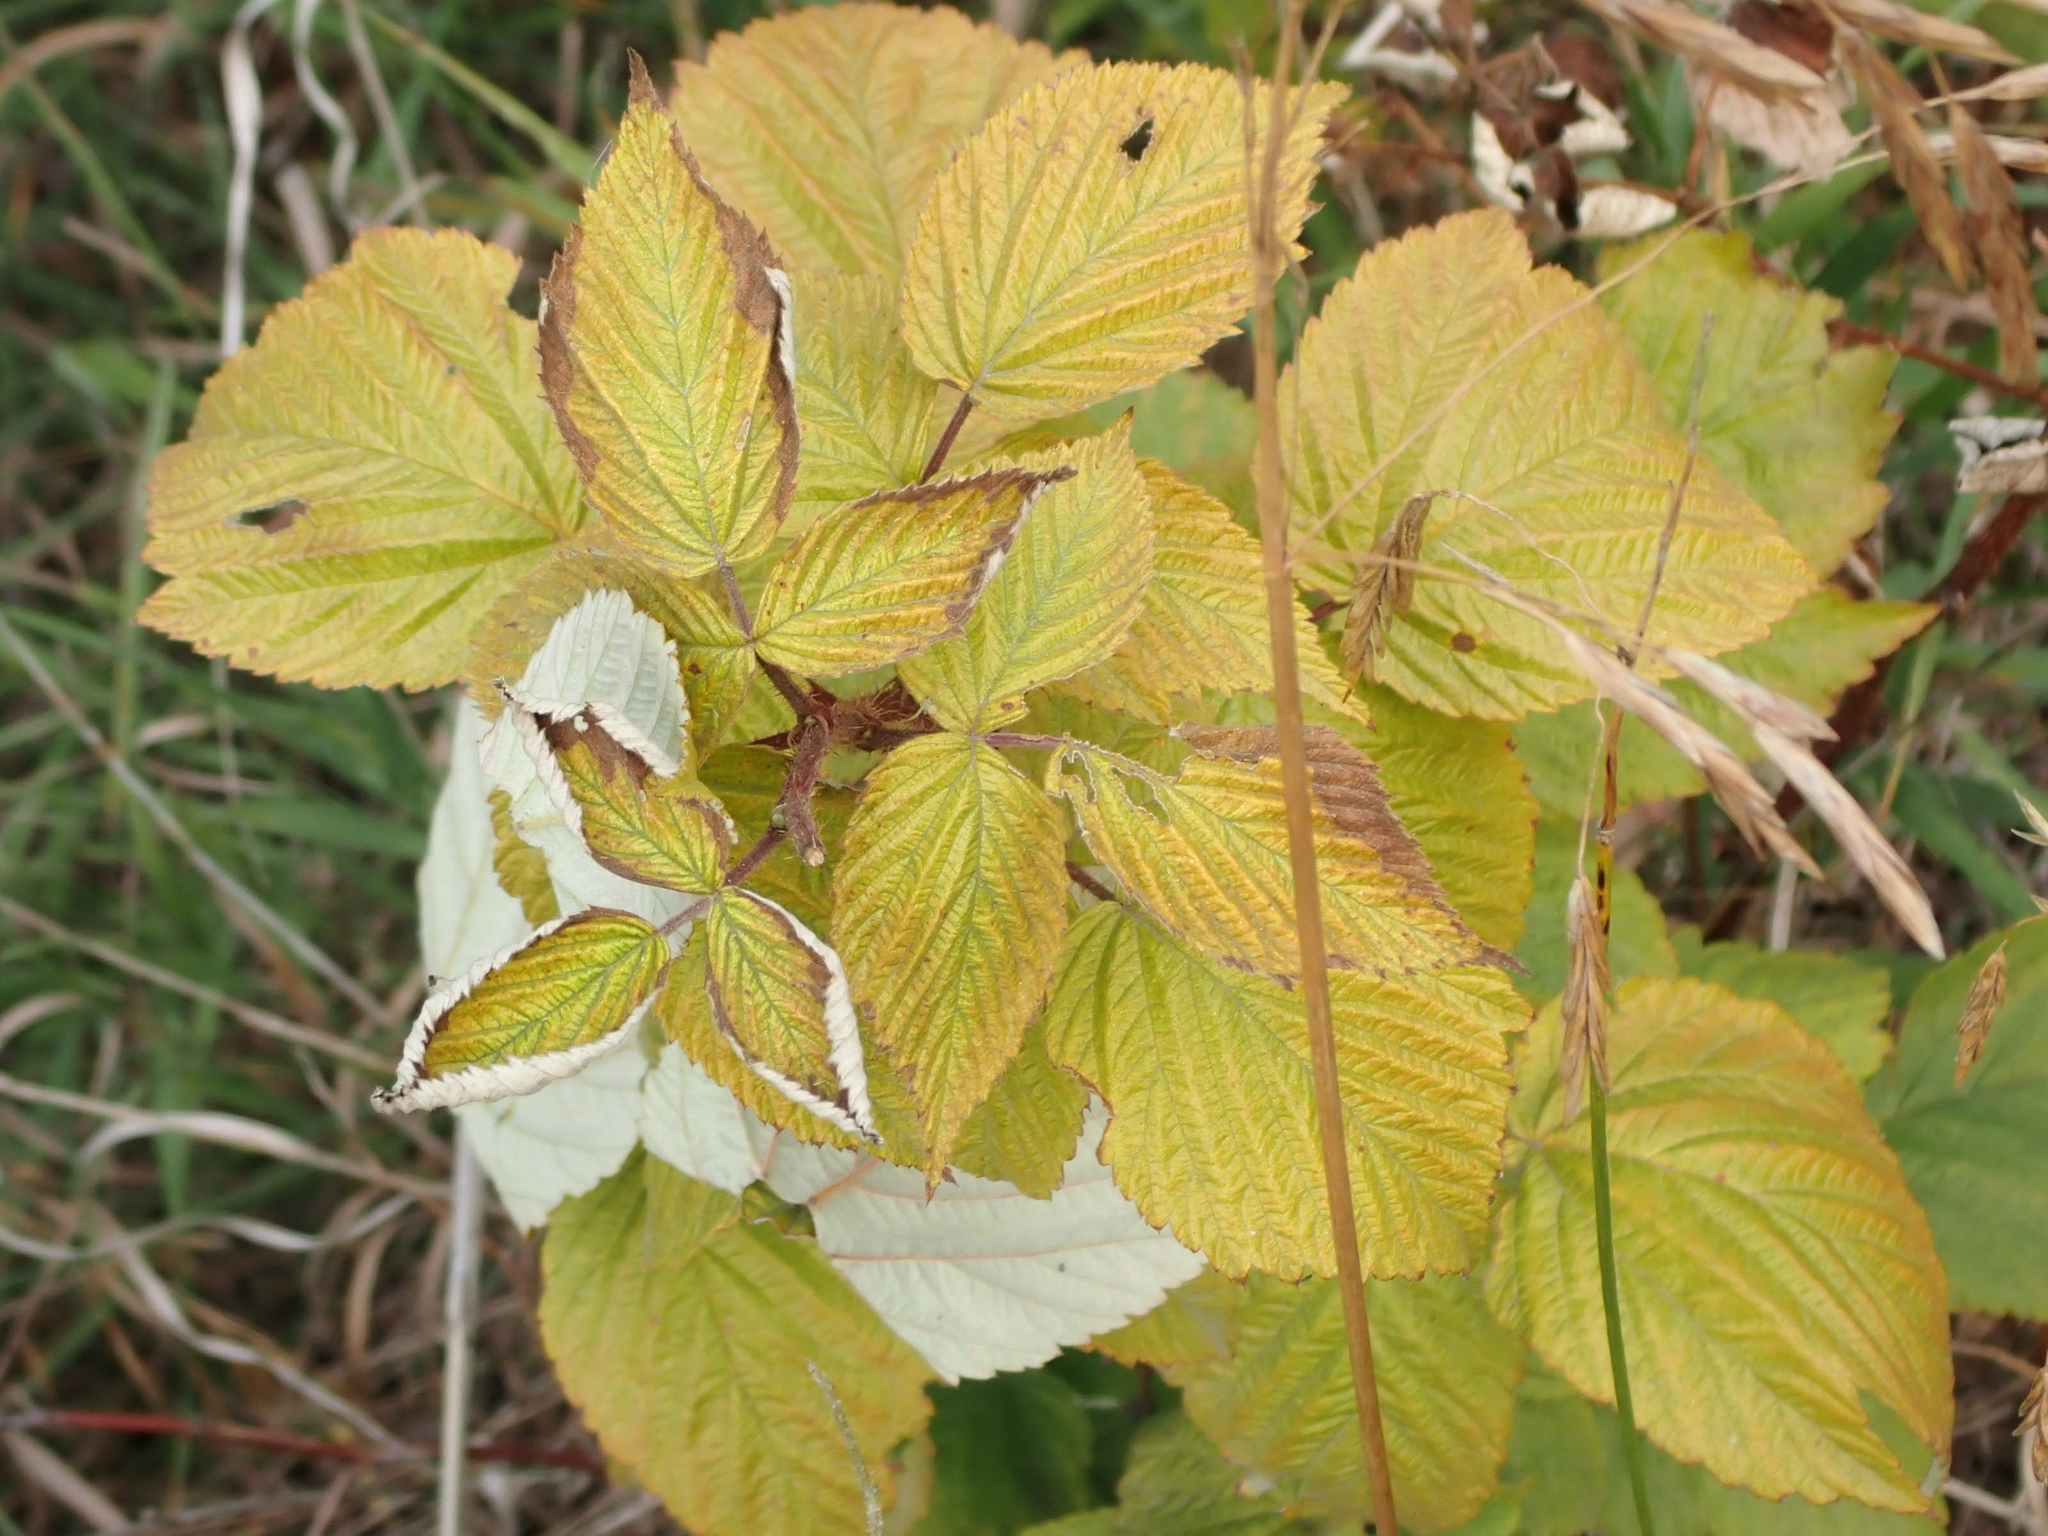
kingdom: Plantae
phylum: Tracheophyta
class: Magnoliopsida
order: Rosales
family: Rosaceae
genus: Rubus
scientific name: Rubus idaeus
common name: Raspberry
